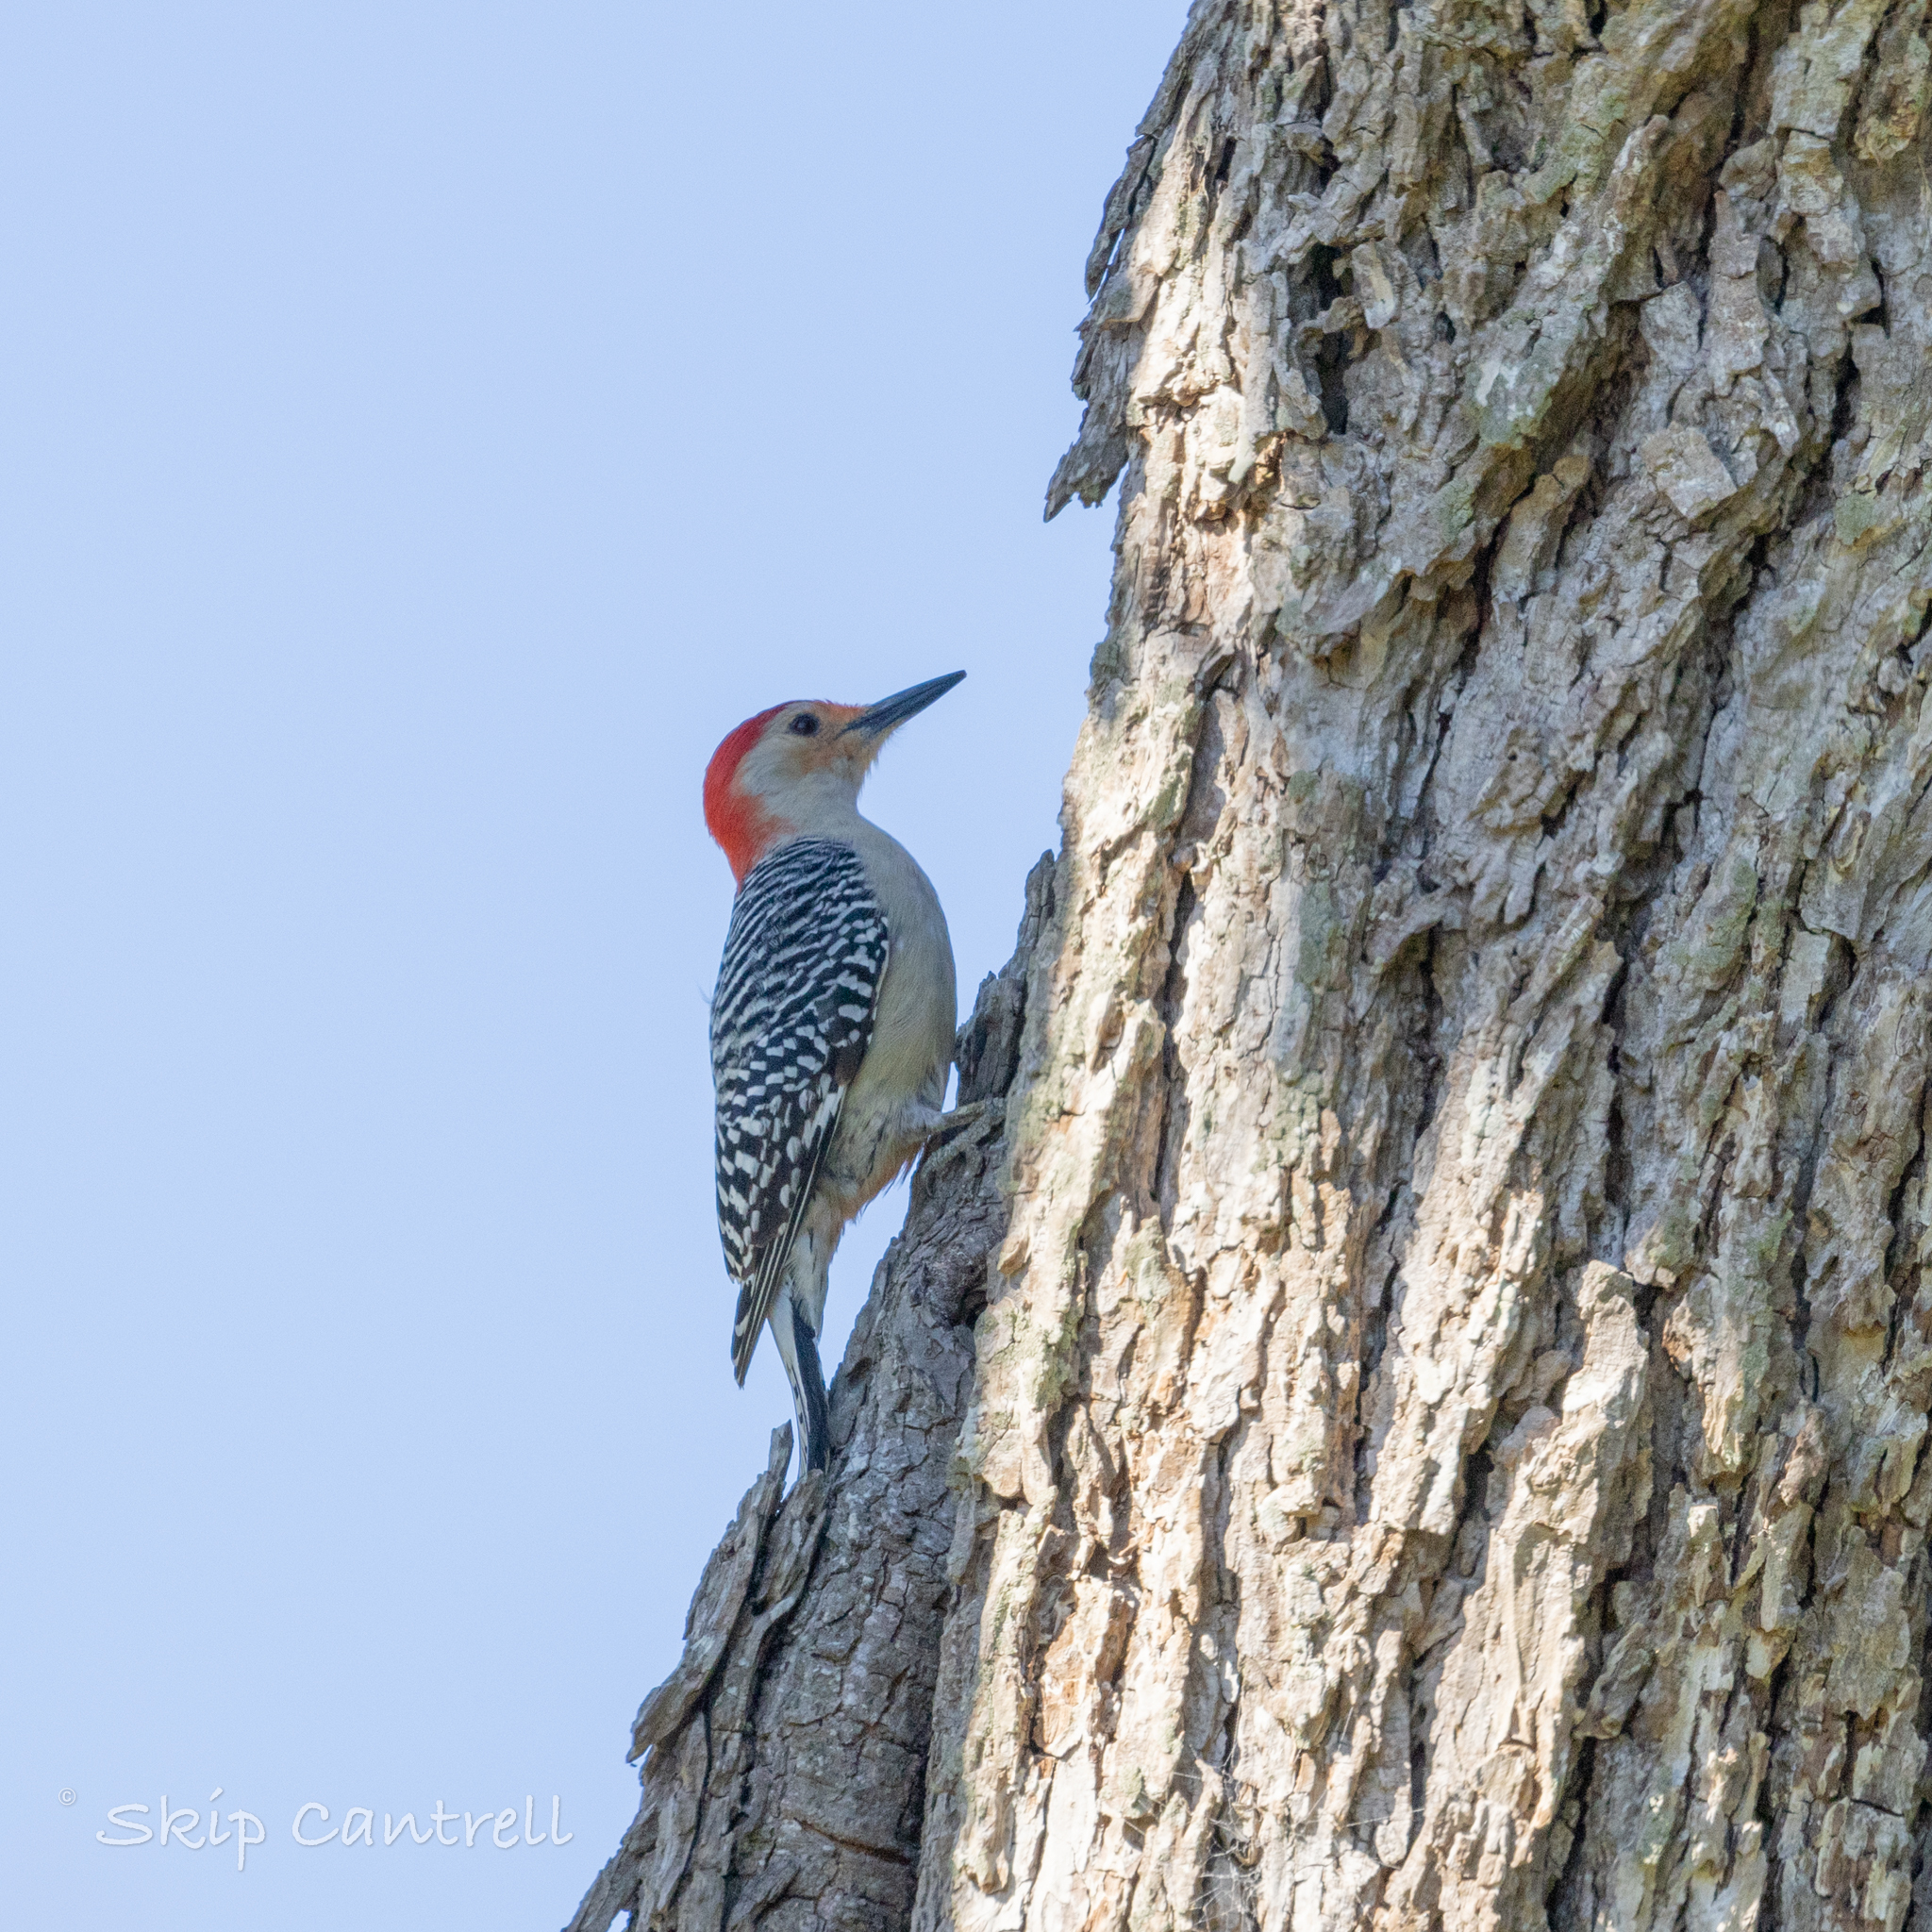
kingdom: Animalia
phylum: Chordata
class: Aves
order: Piciformes
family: Picidae
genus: Melanerpes
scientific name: Melanerpes carolinus
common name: Red-bellied woodpecker
